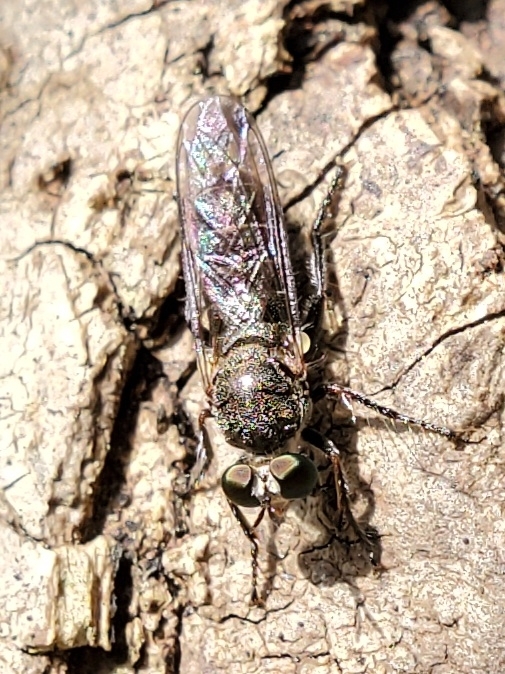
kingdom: Animalia
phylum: Arthropoda
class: Insecta
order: Diptera
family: Asilidae
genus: Atomosia
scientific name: Atomosia puella
